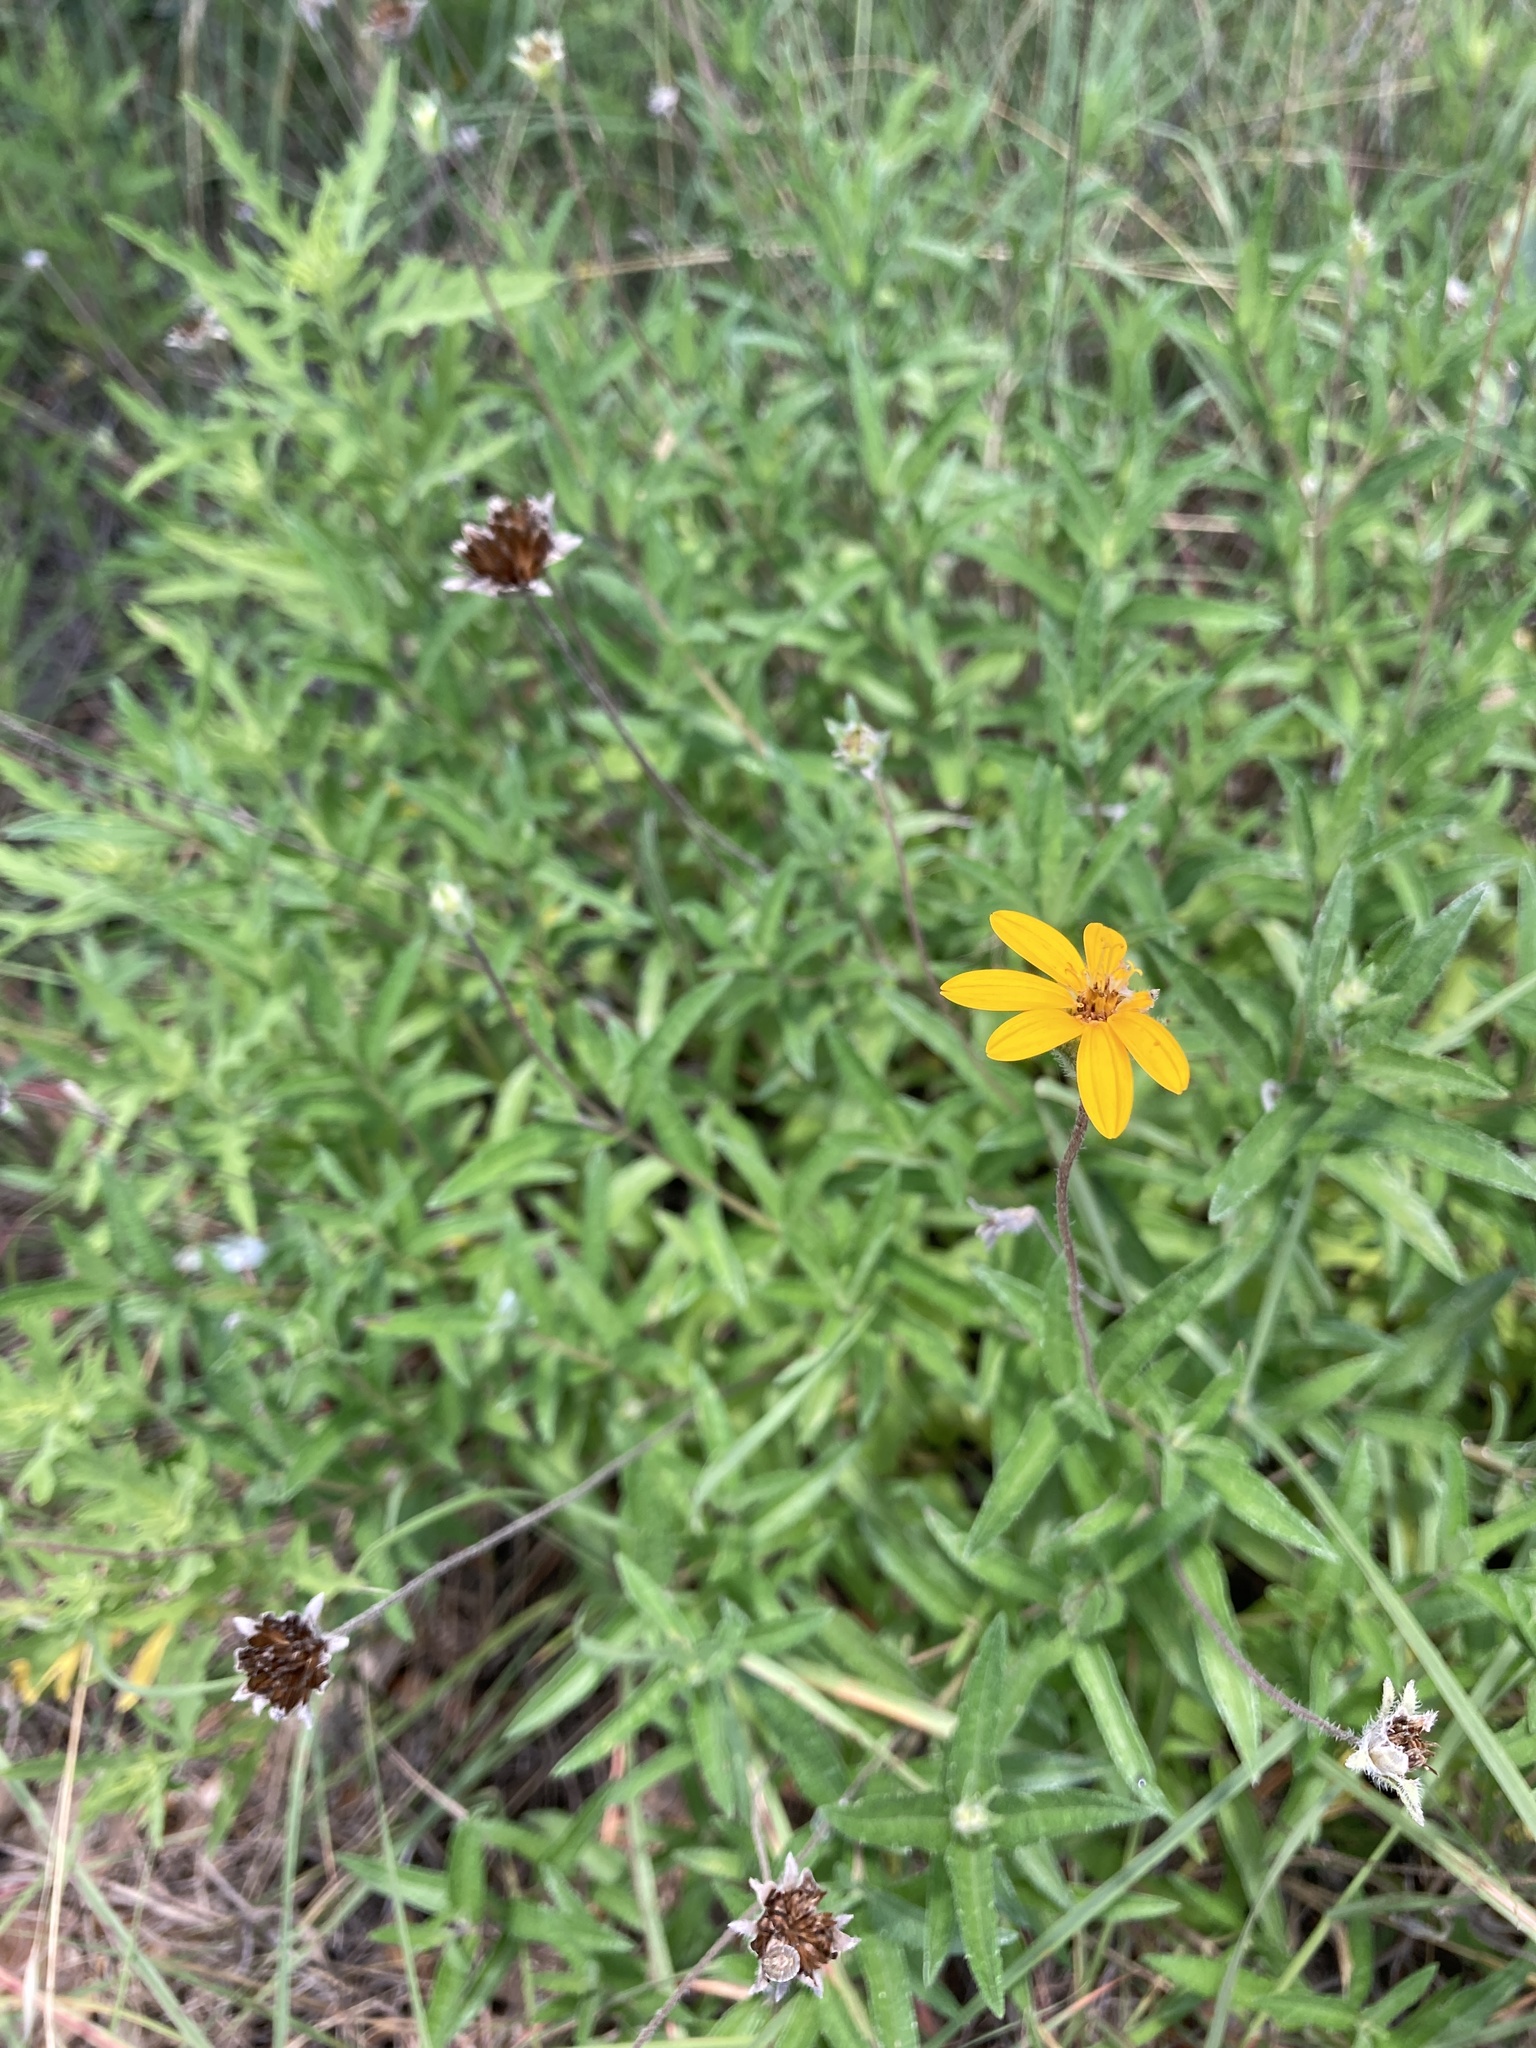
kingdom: Plantae
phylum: Tracheophyta
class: Magnoliopsida
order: Asterales
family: Asteraceae
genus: Wedelia
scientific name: Wedelia acapulcensis
